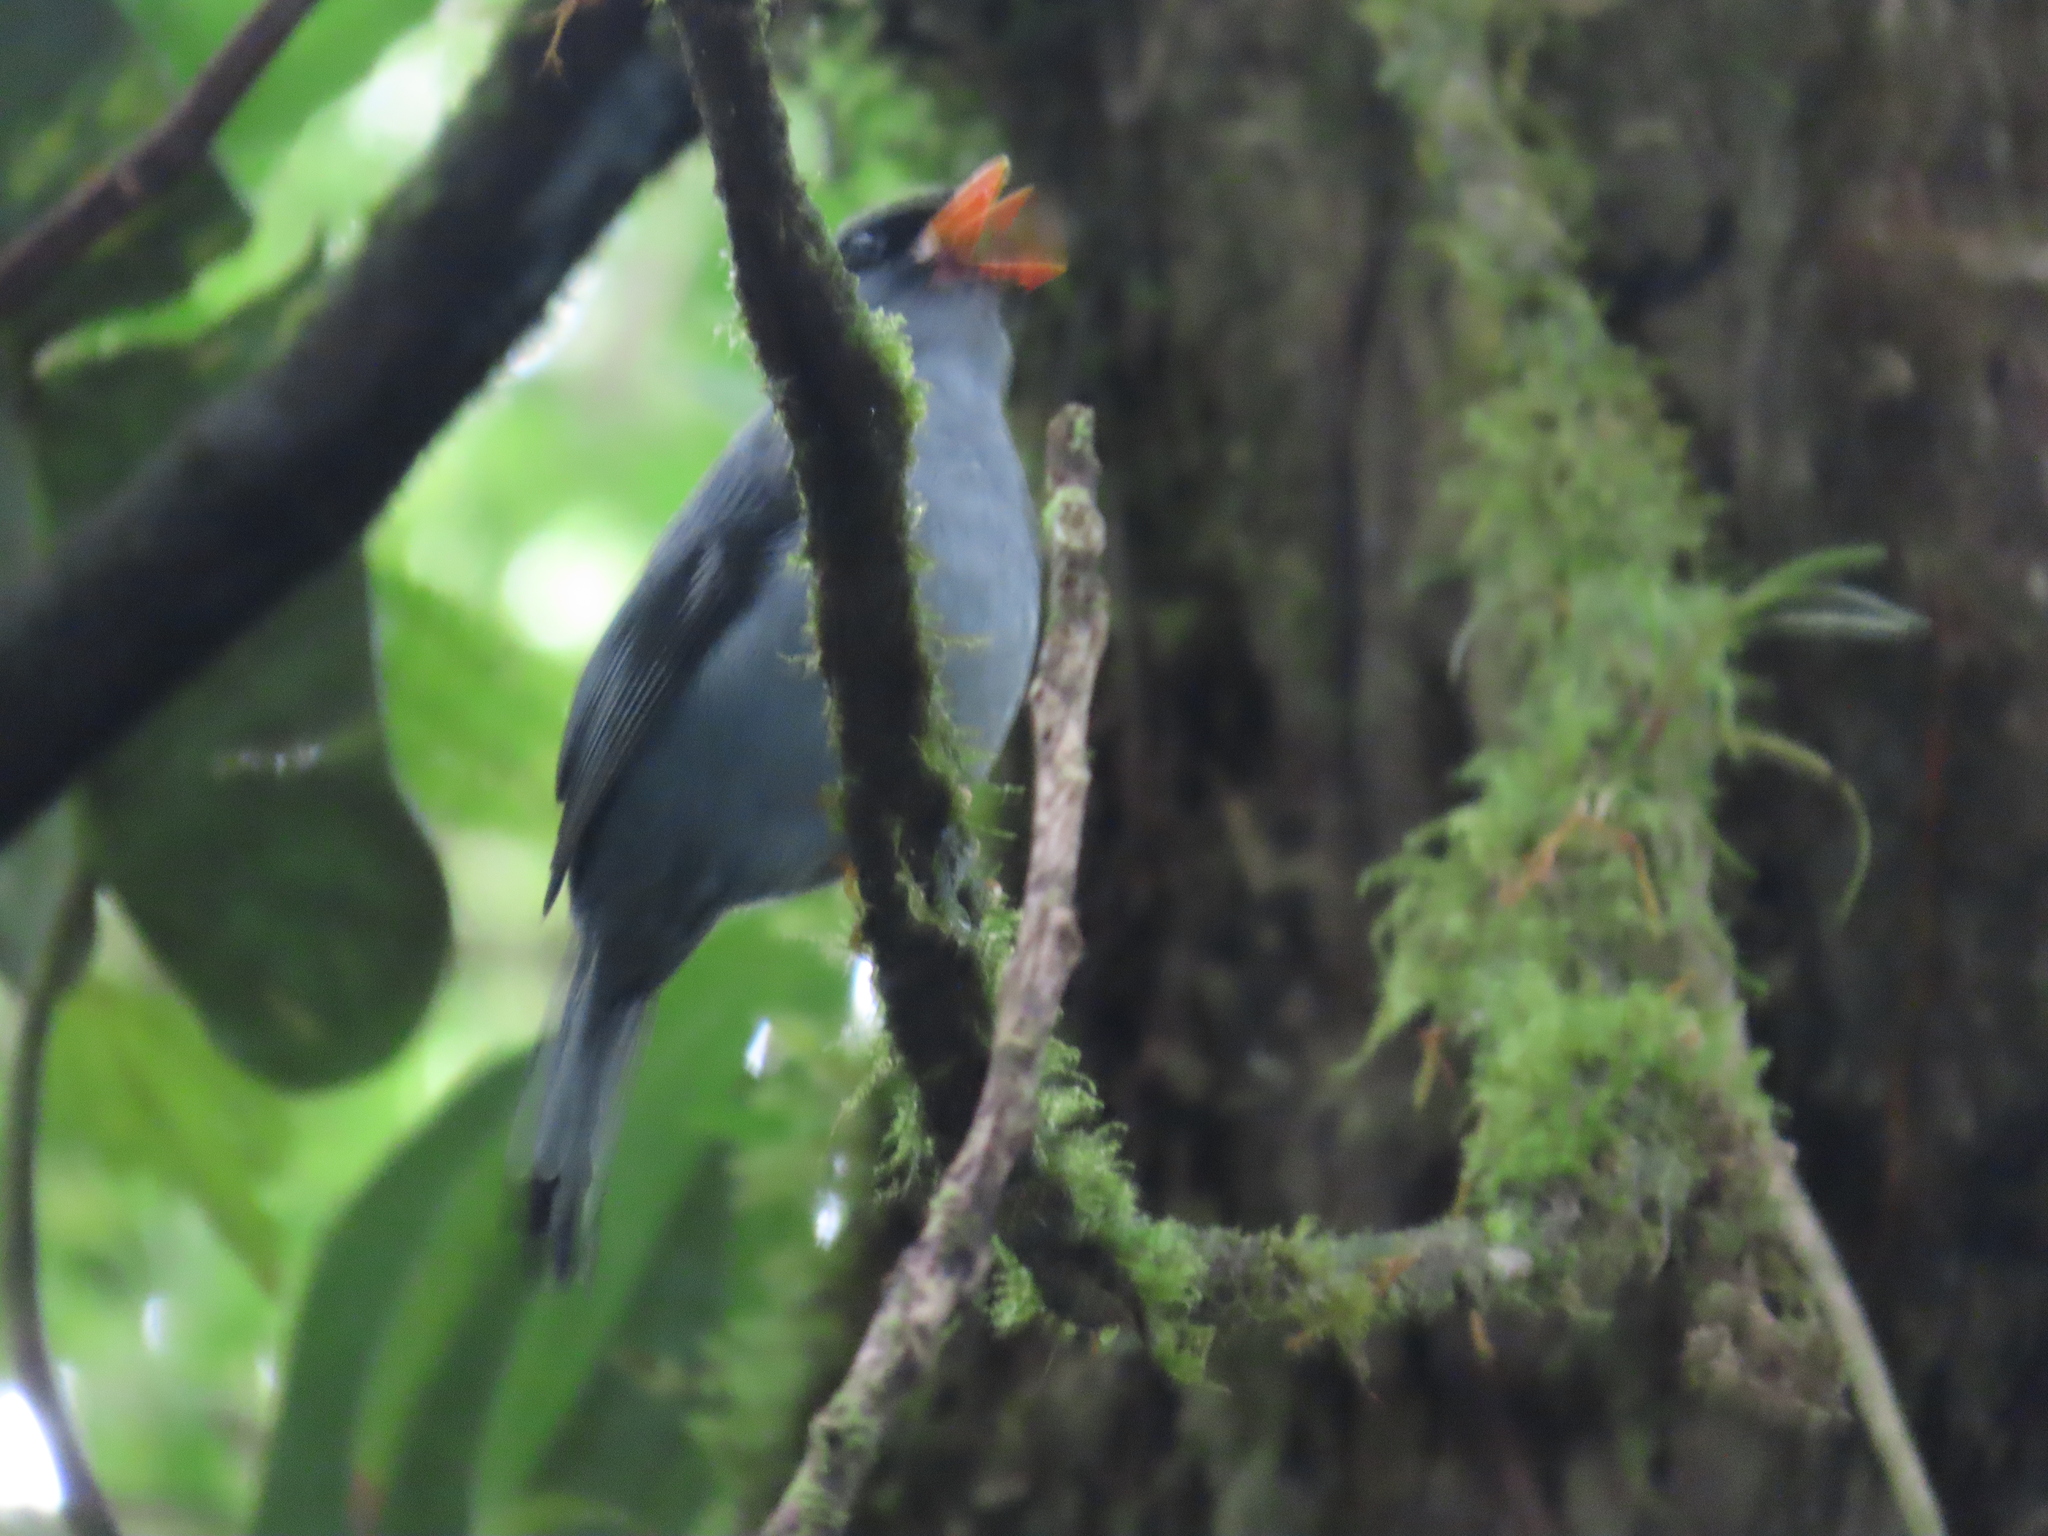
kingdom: Animalia
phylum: Chordata
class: Aves
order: Passeriformes
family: Turdidae
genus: Myadestes
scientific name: Myadestes melanops
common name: Black-faced solitaire
